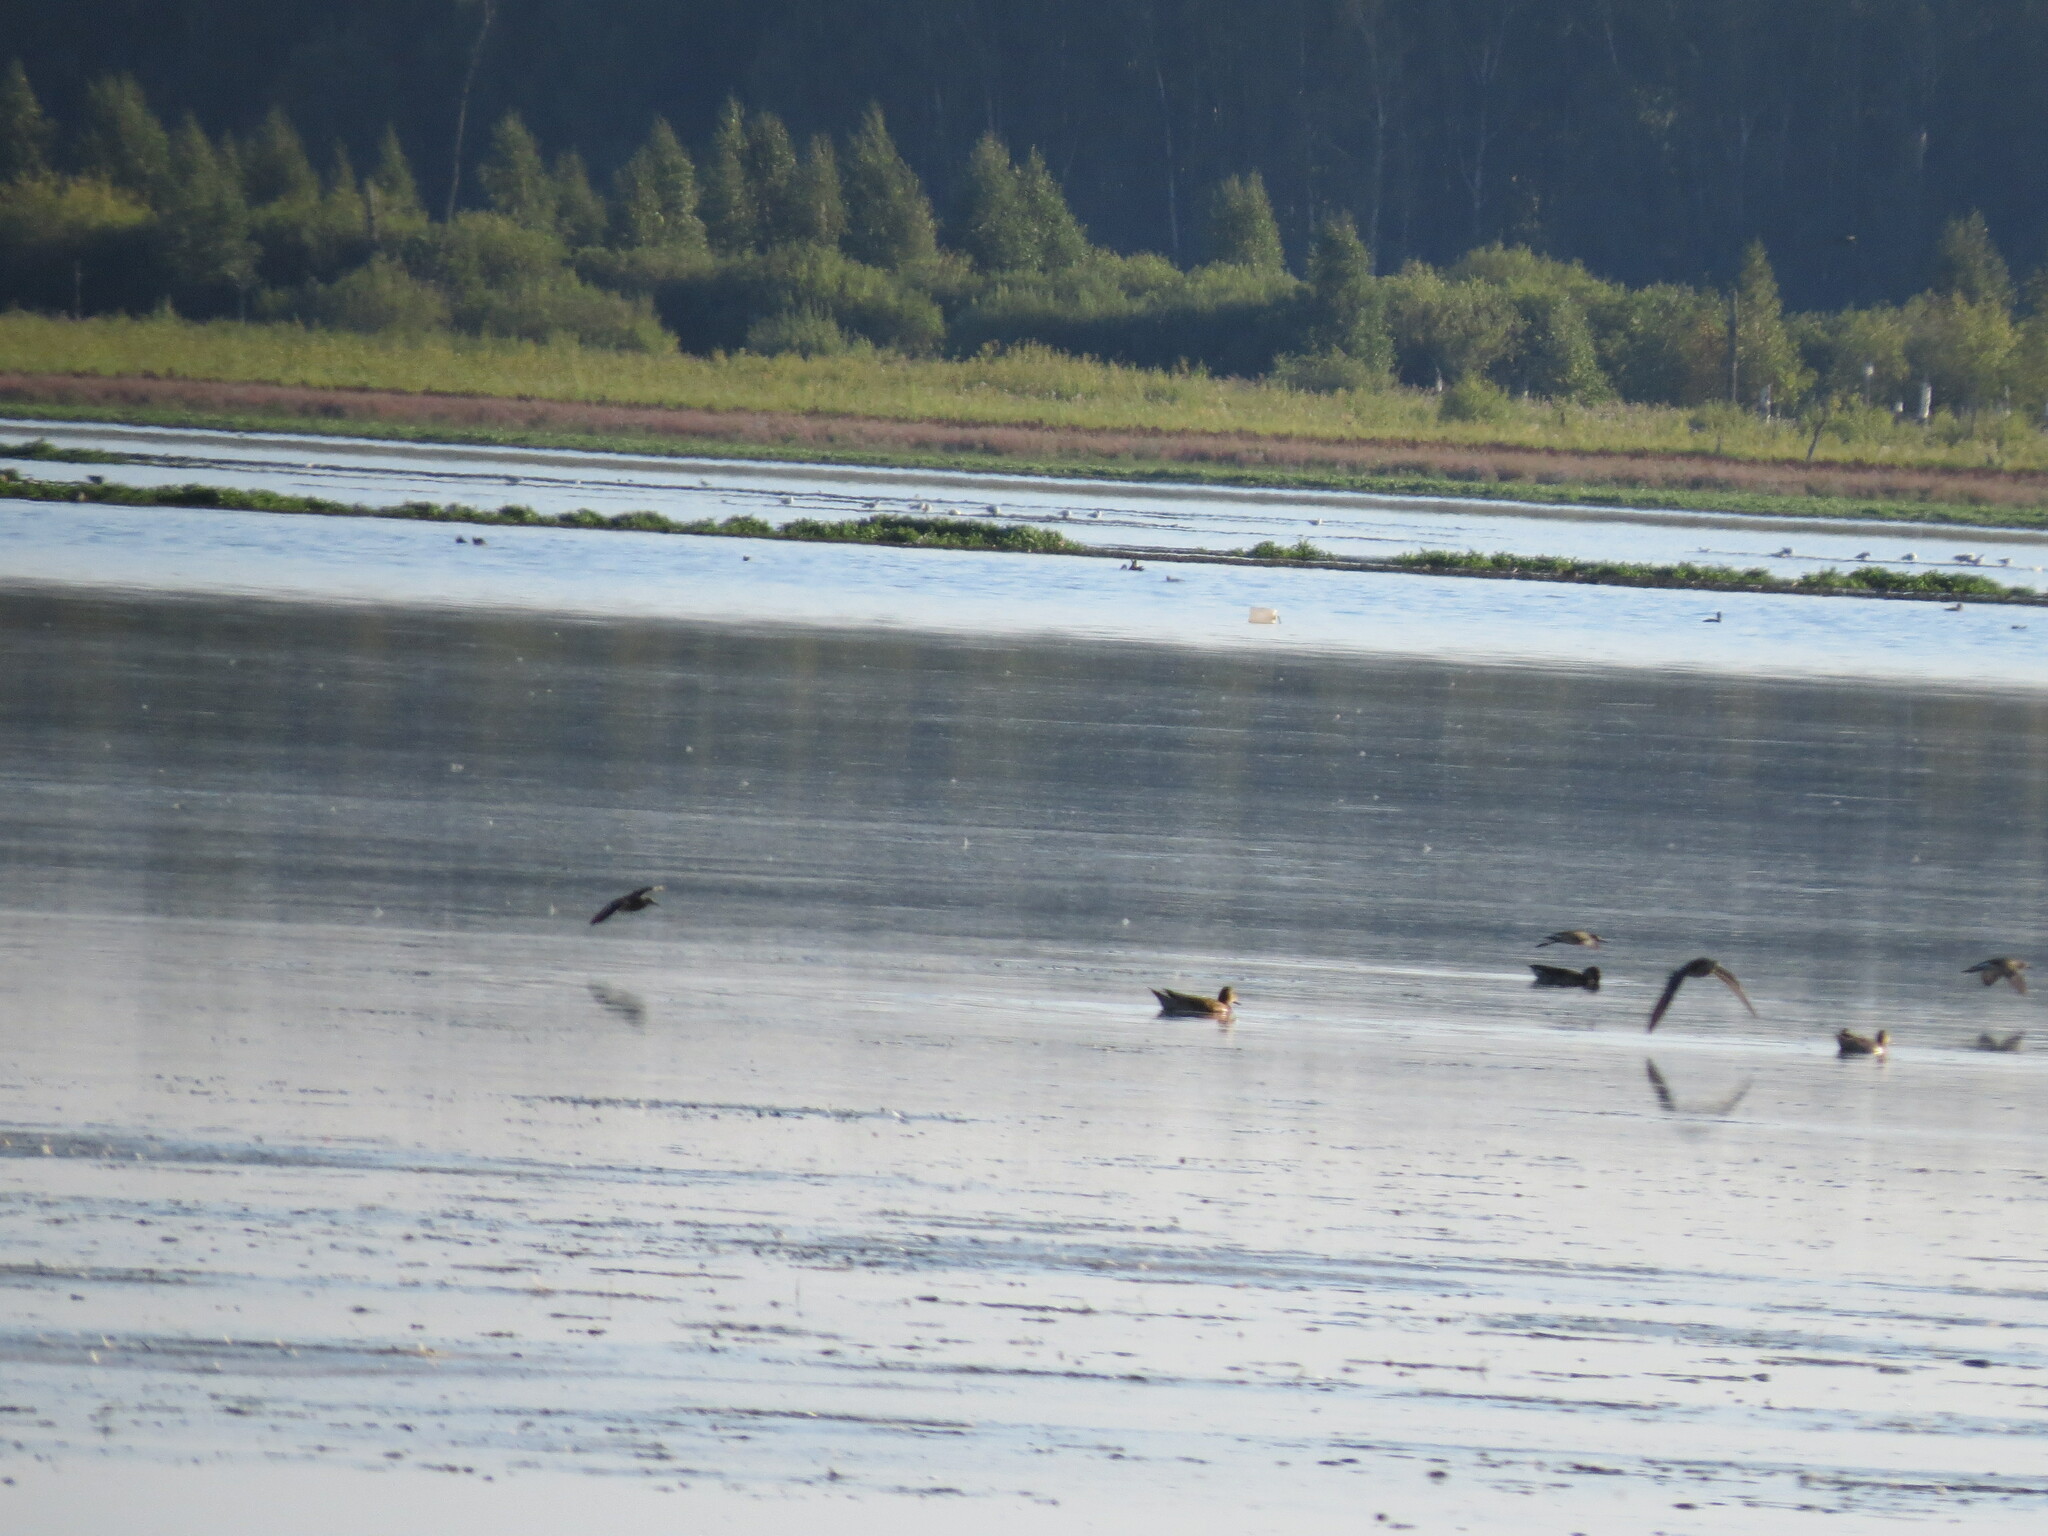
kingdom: Animalia
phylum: Chordata
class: Aves
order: Charadriiformes
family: Charadriidae
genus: Vanellus
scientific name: Vanellus vanellus
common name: Northern lapwing
